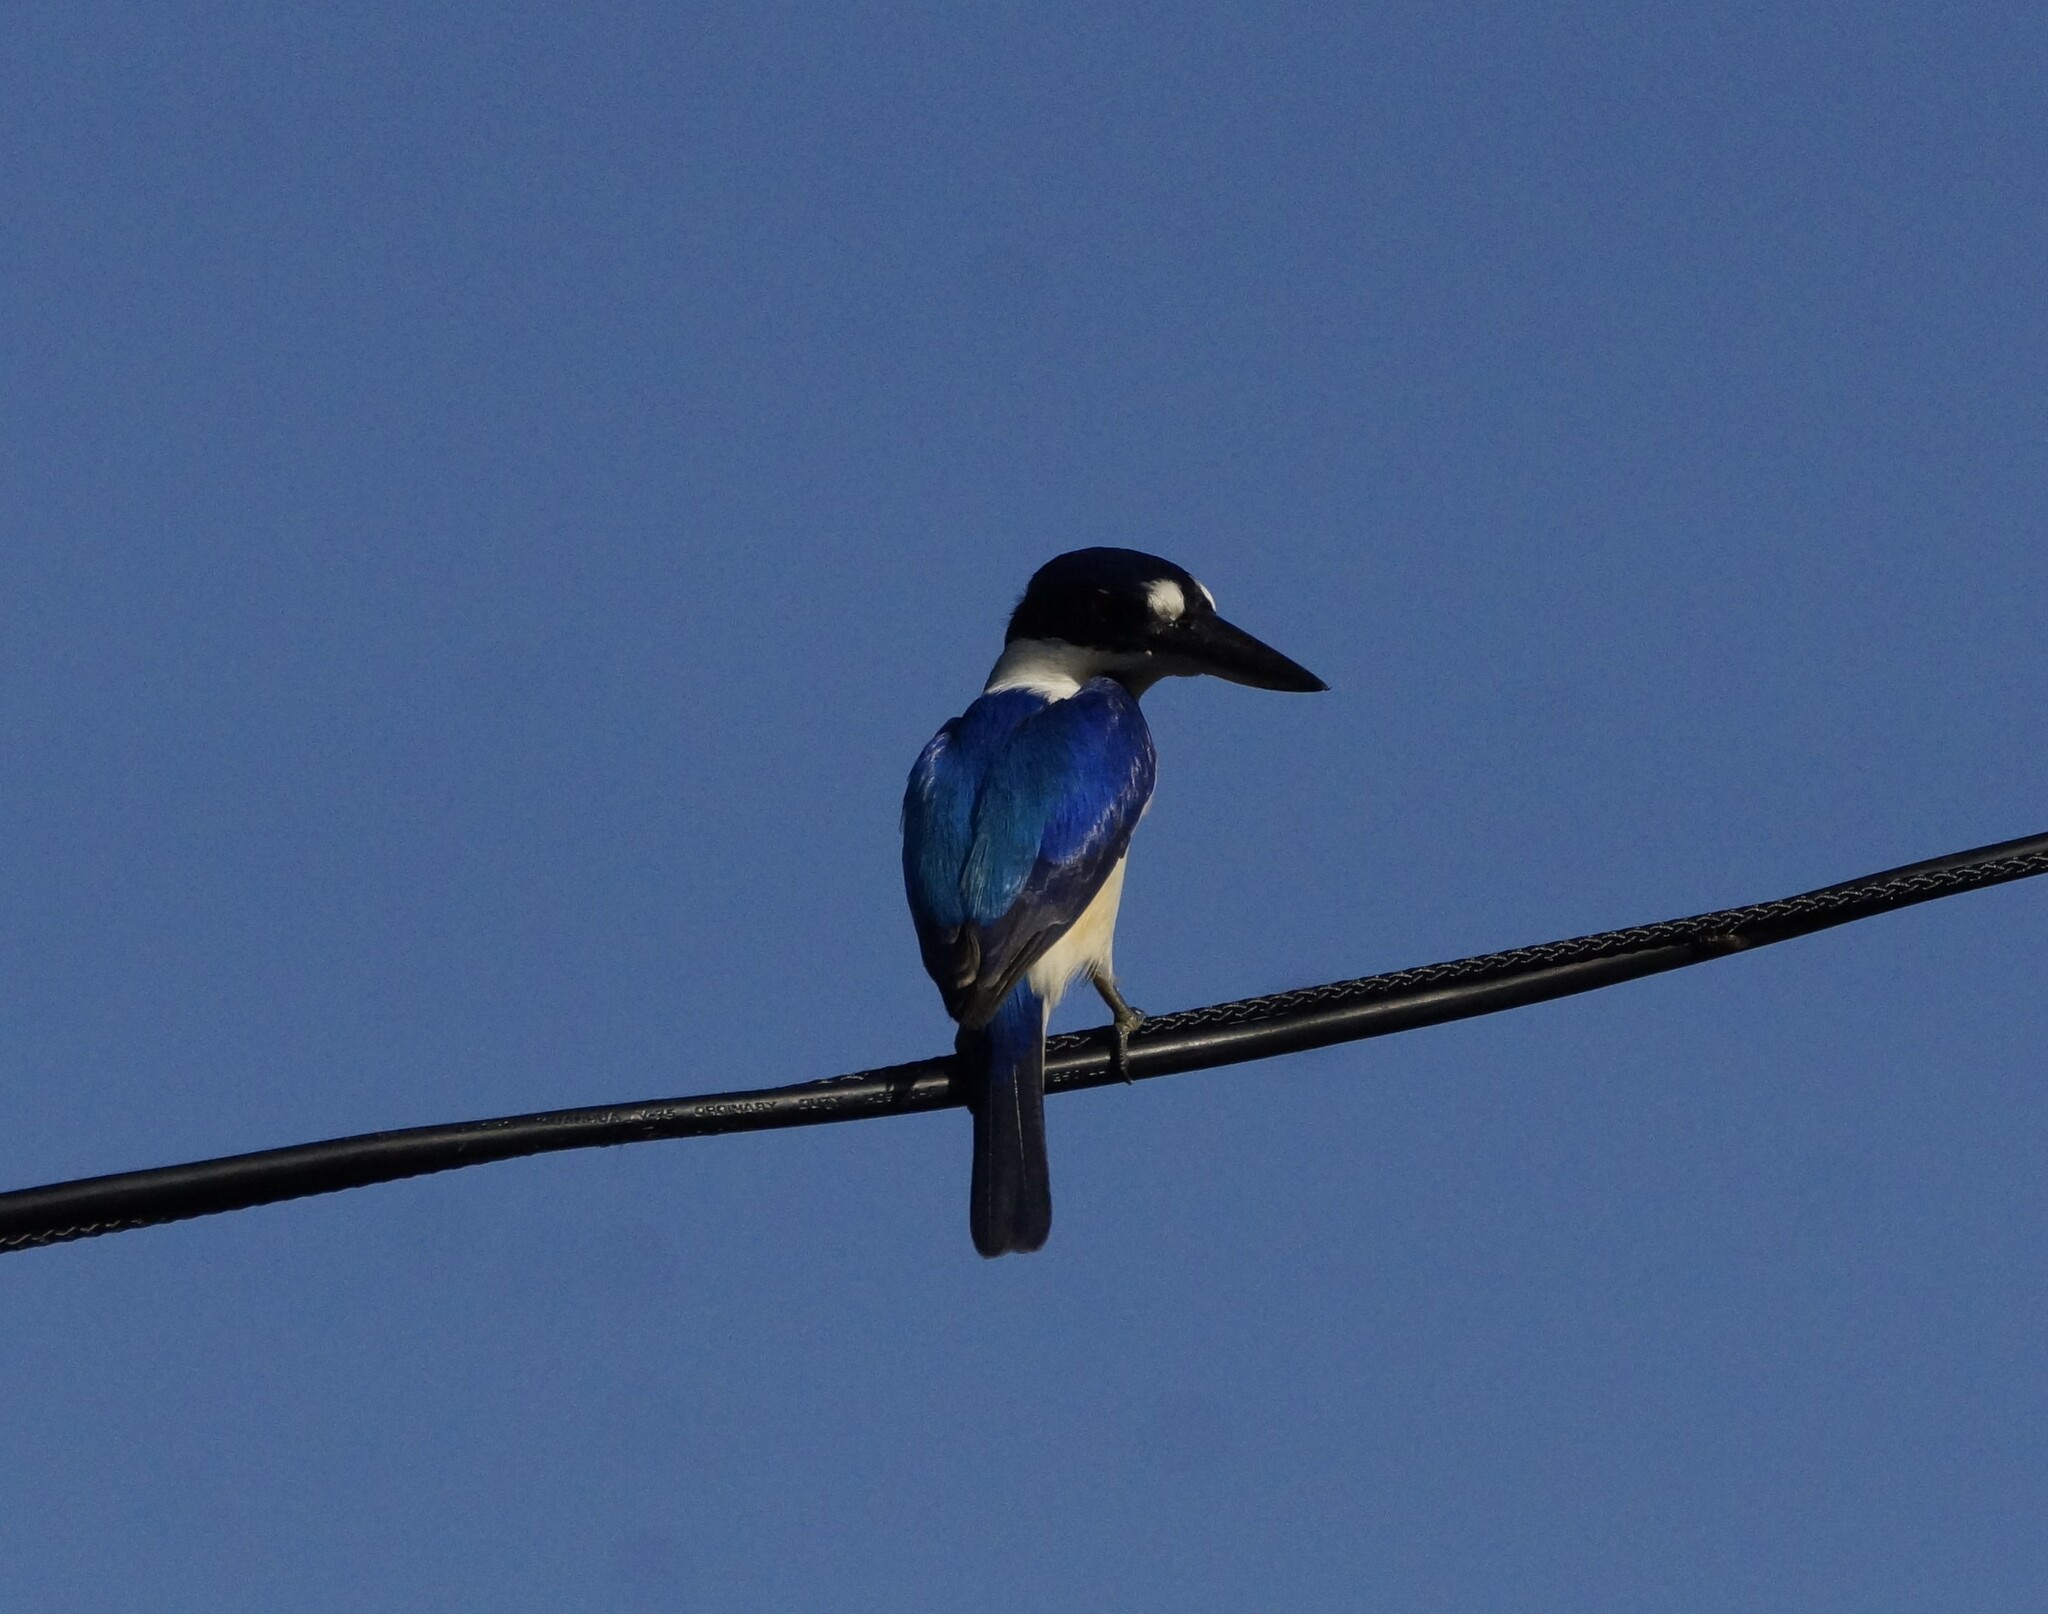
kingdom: Animalia
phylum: Chordata
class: Aves
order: Coraciiformes
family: Alcedinidae
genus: Todiramphus
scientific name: Todiramphus macleayii
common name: Forest kingfisher
